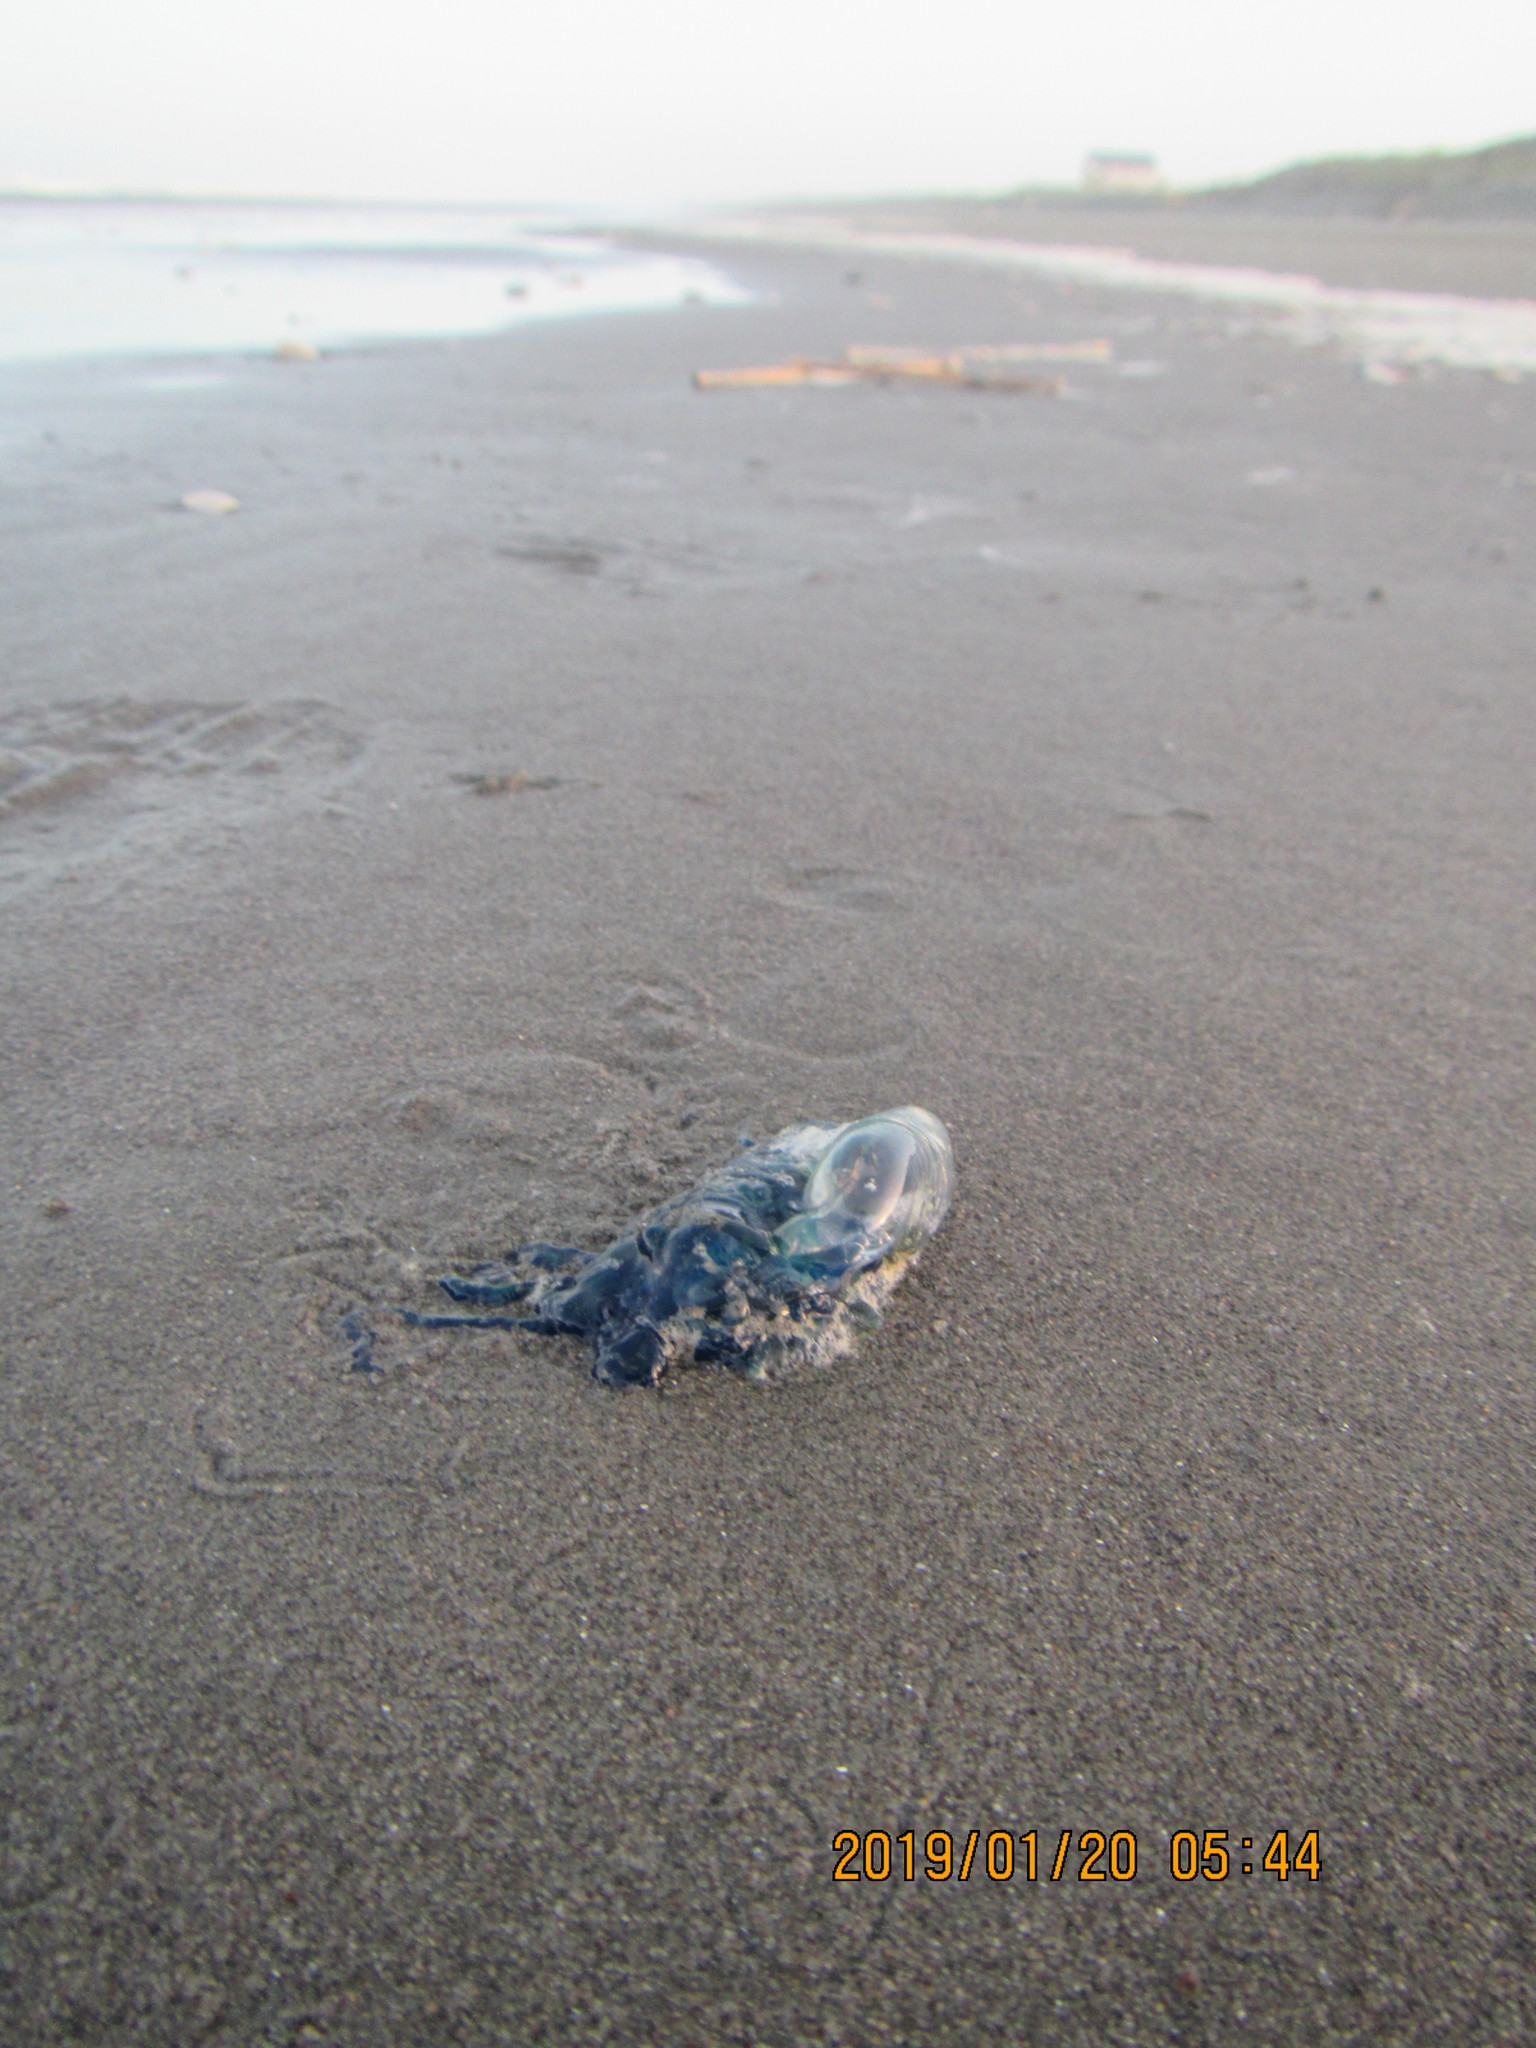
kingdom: Animalia
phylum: Cnidaria
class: Hydrozoa
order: Siphonophorae
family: Physaliidae
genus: Physalia
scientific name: Physalia physalis
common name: Portuguese man-of-war
